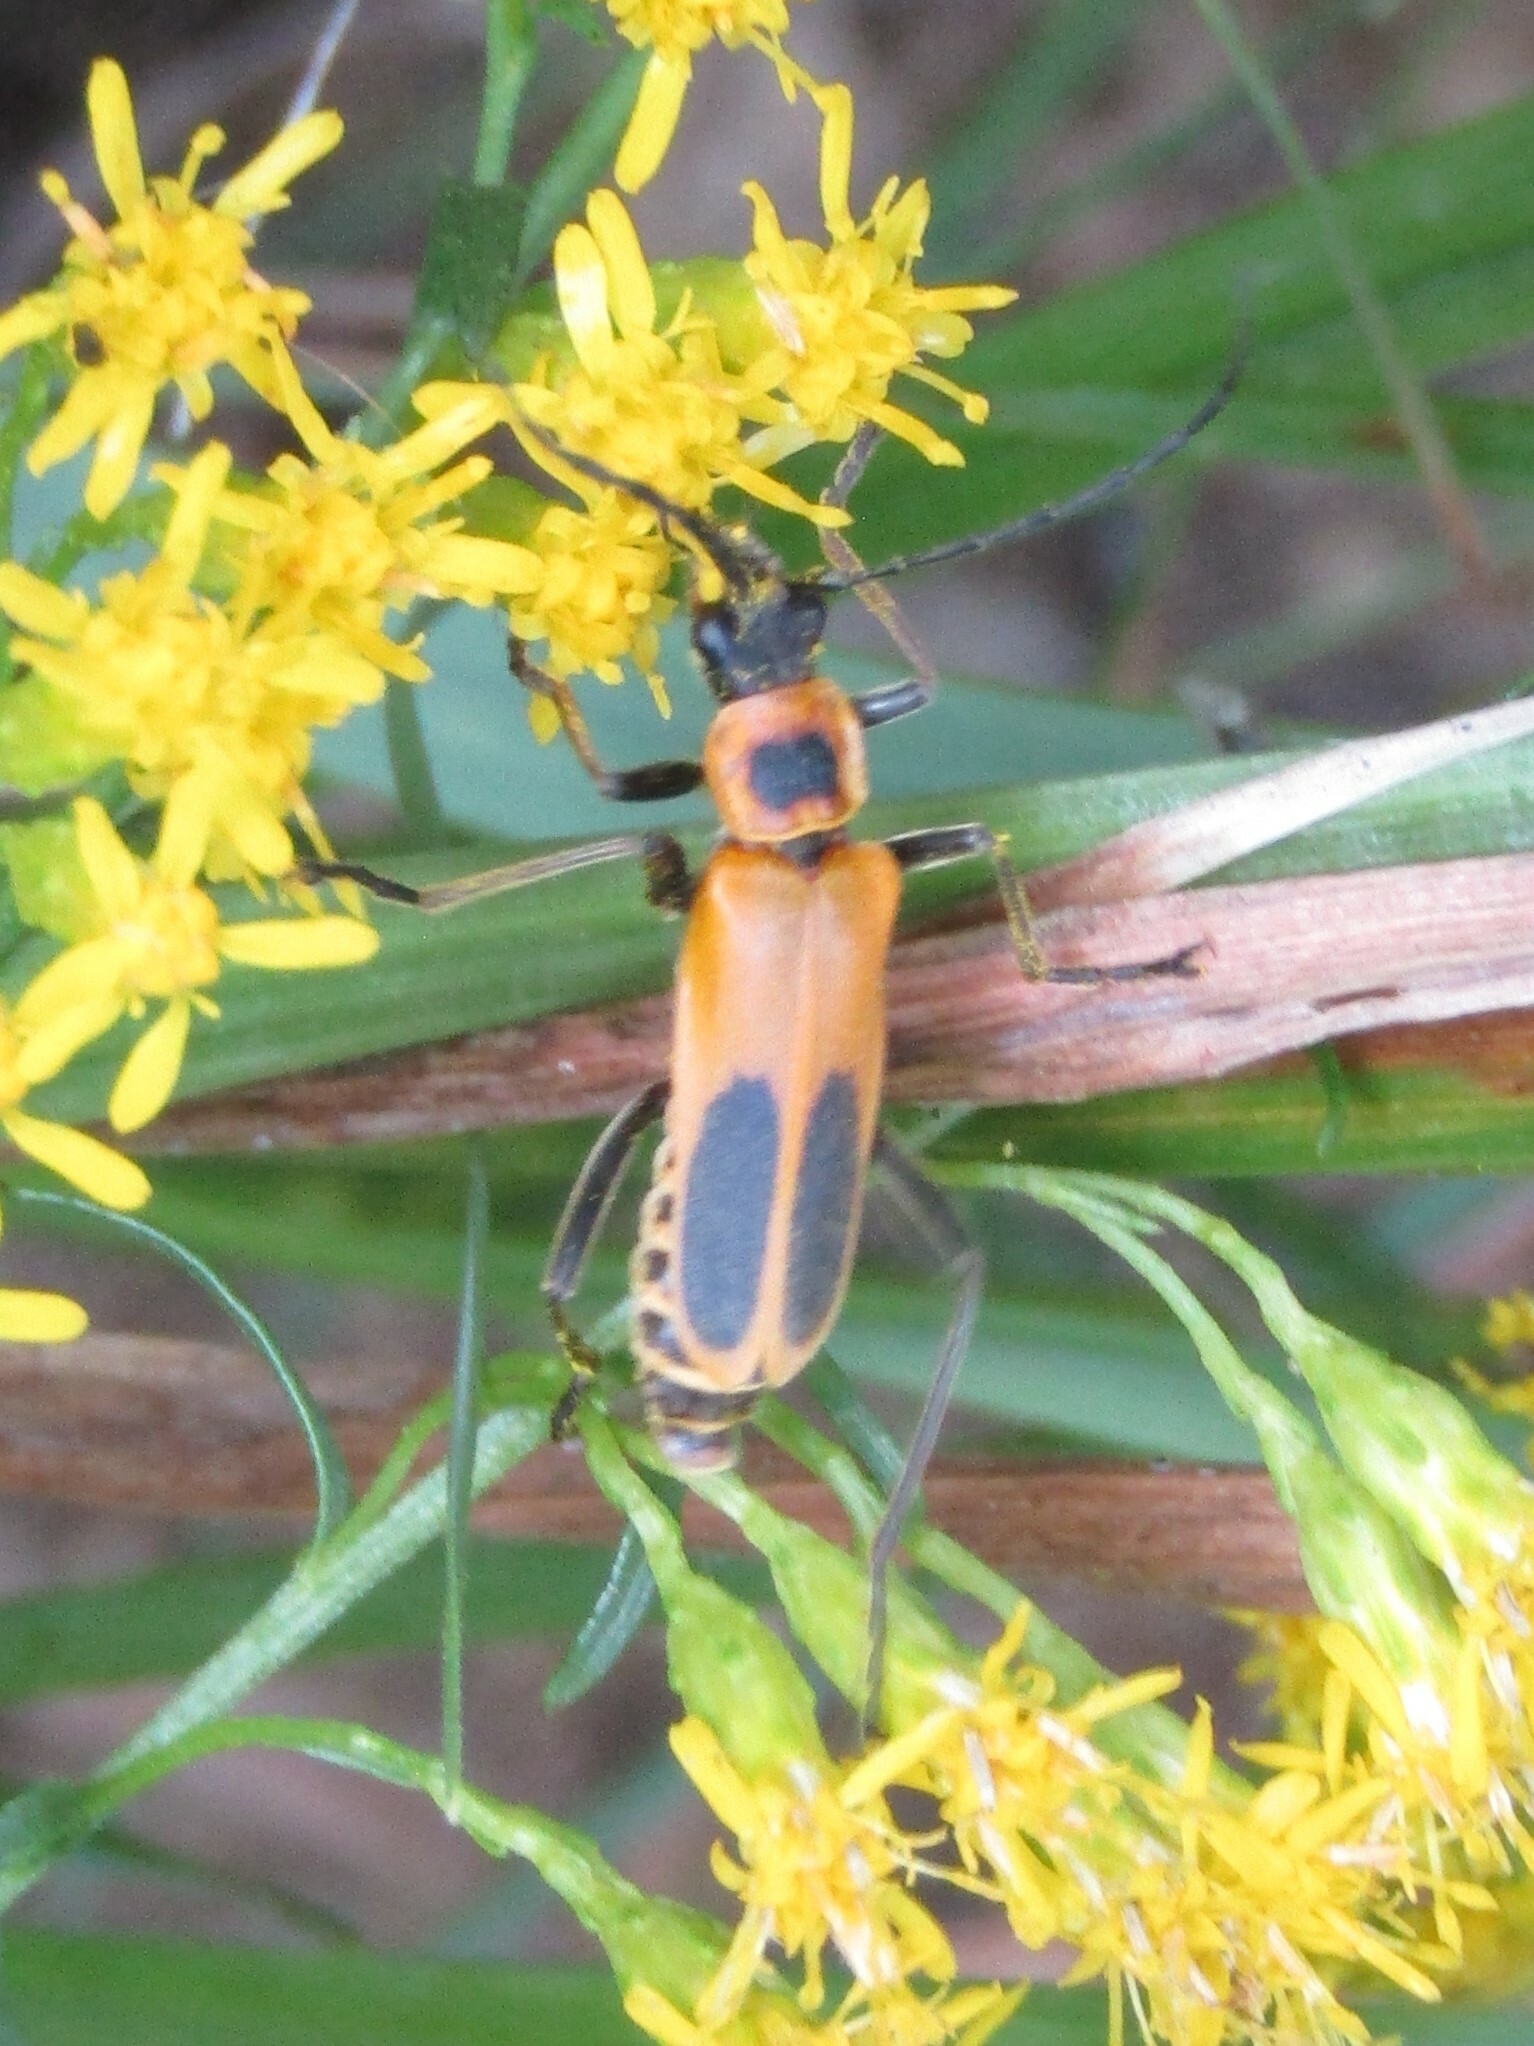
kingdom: Animalia
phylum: Arthropoda
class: Insecta
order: Coleoptera
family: Cantharidae
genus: Chauliognathus
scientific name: Chauliognathus pensylvanicus
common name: Goldenrod soldier beetle
